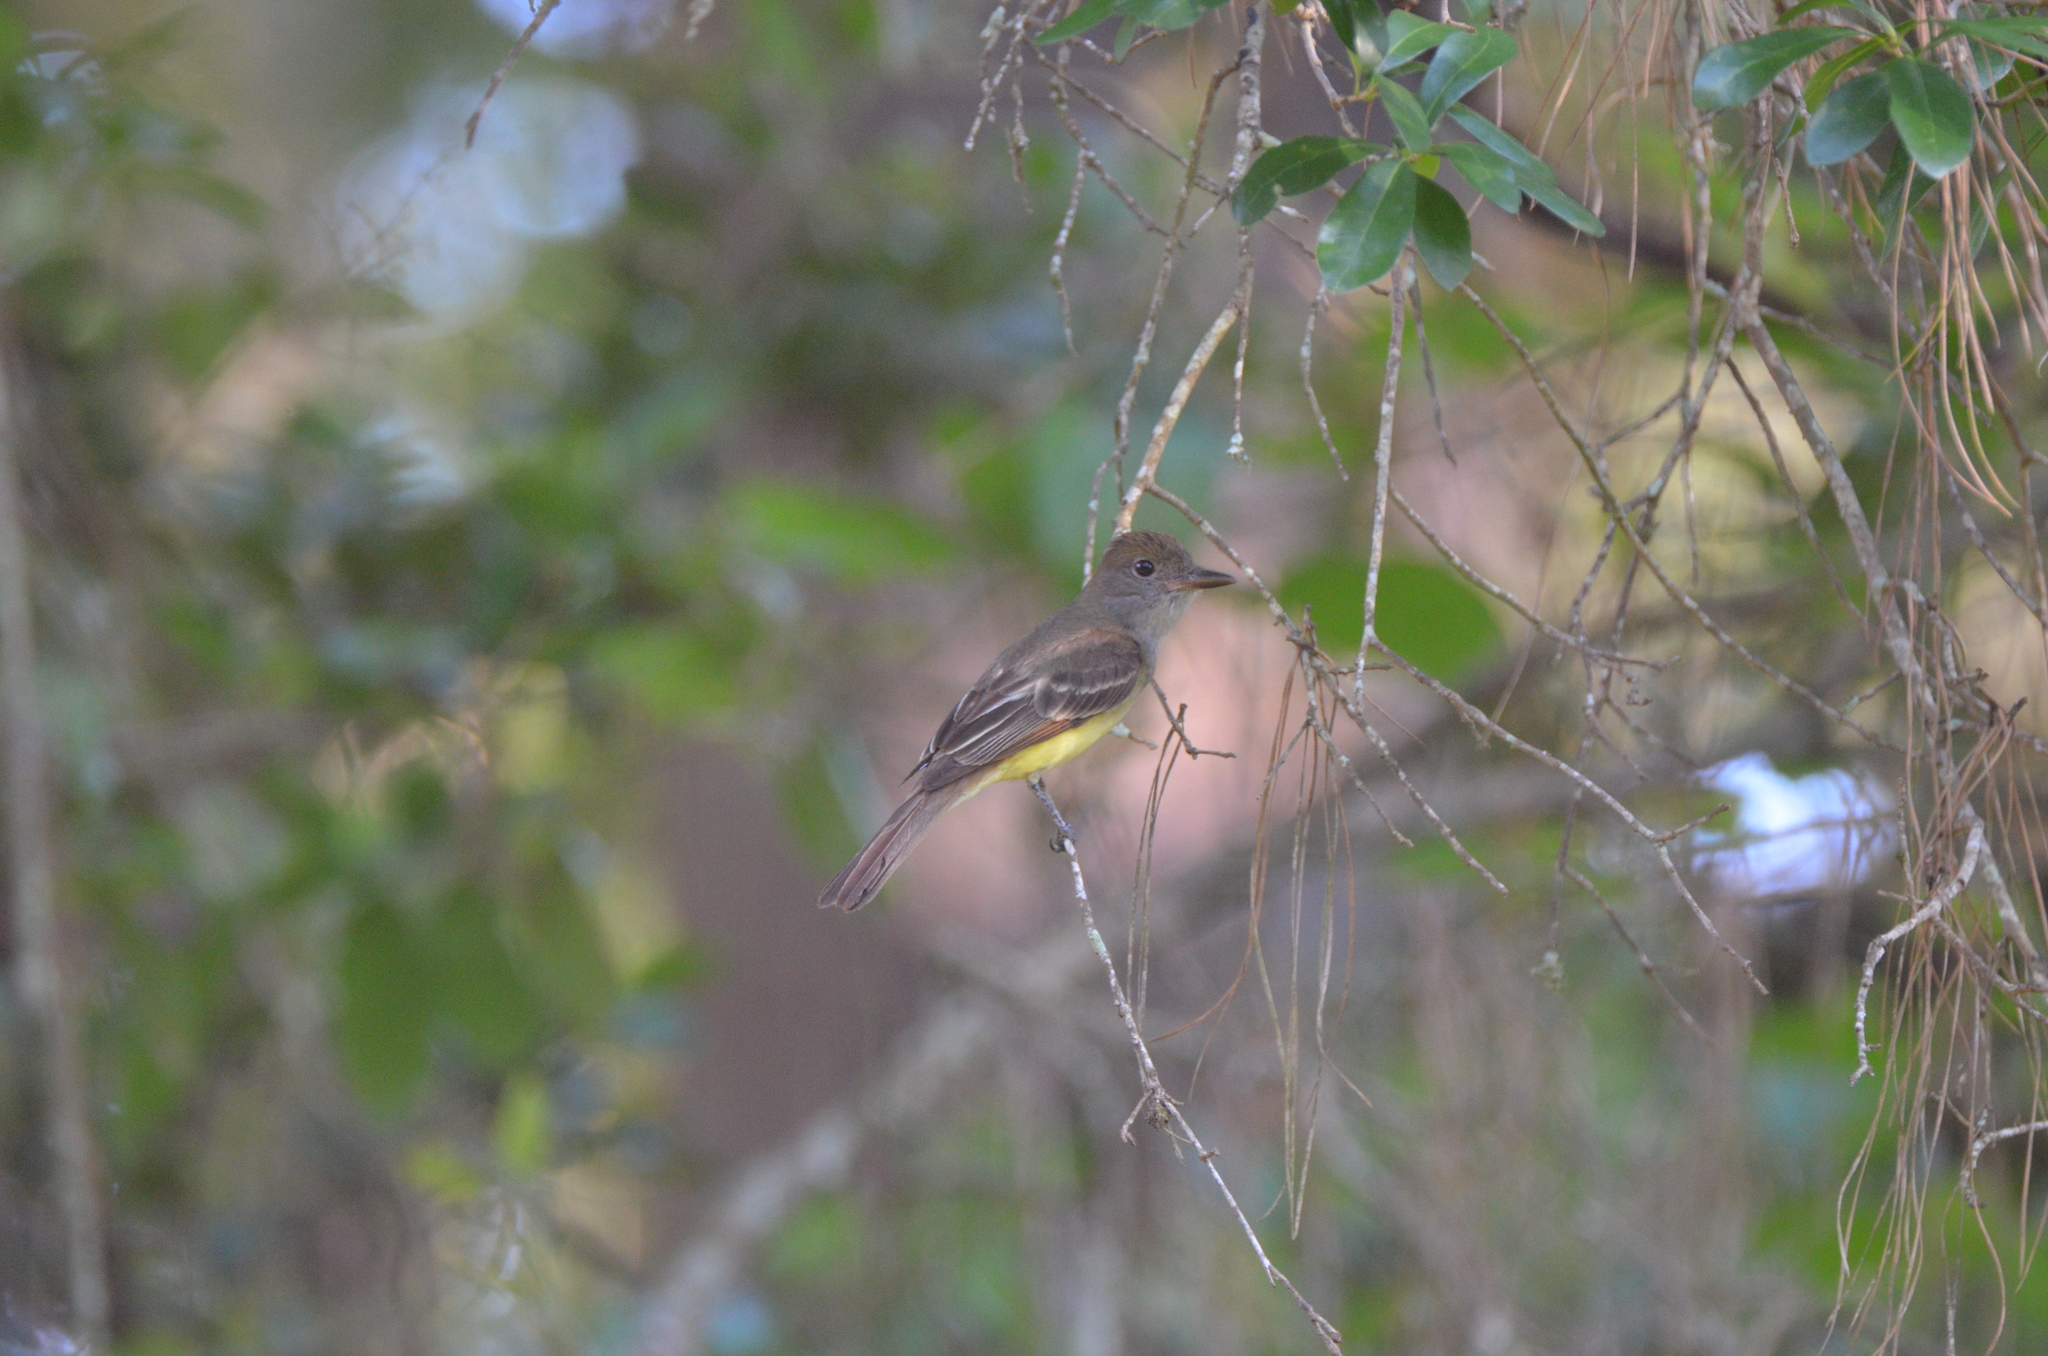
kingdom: Animalia
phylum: Chordata
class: Aves
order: Passeriformes
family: Tyrannidae
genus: Myiarchus
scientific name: Myiarchus crinitus
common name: Great crested flycatcher
